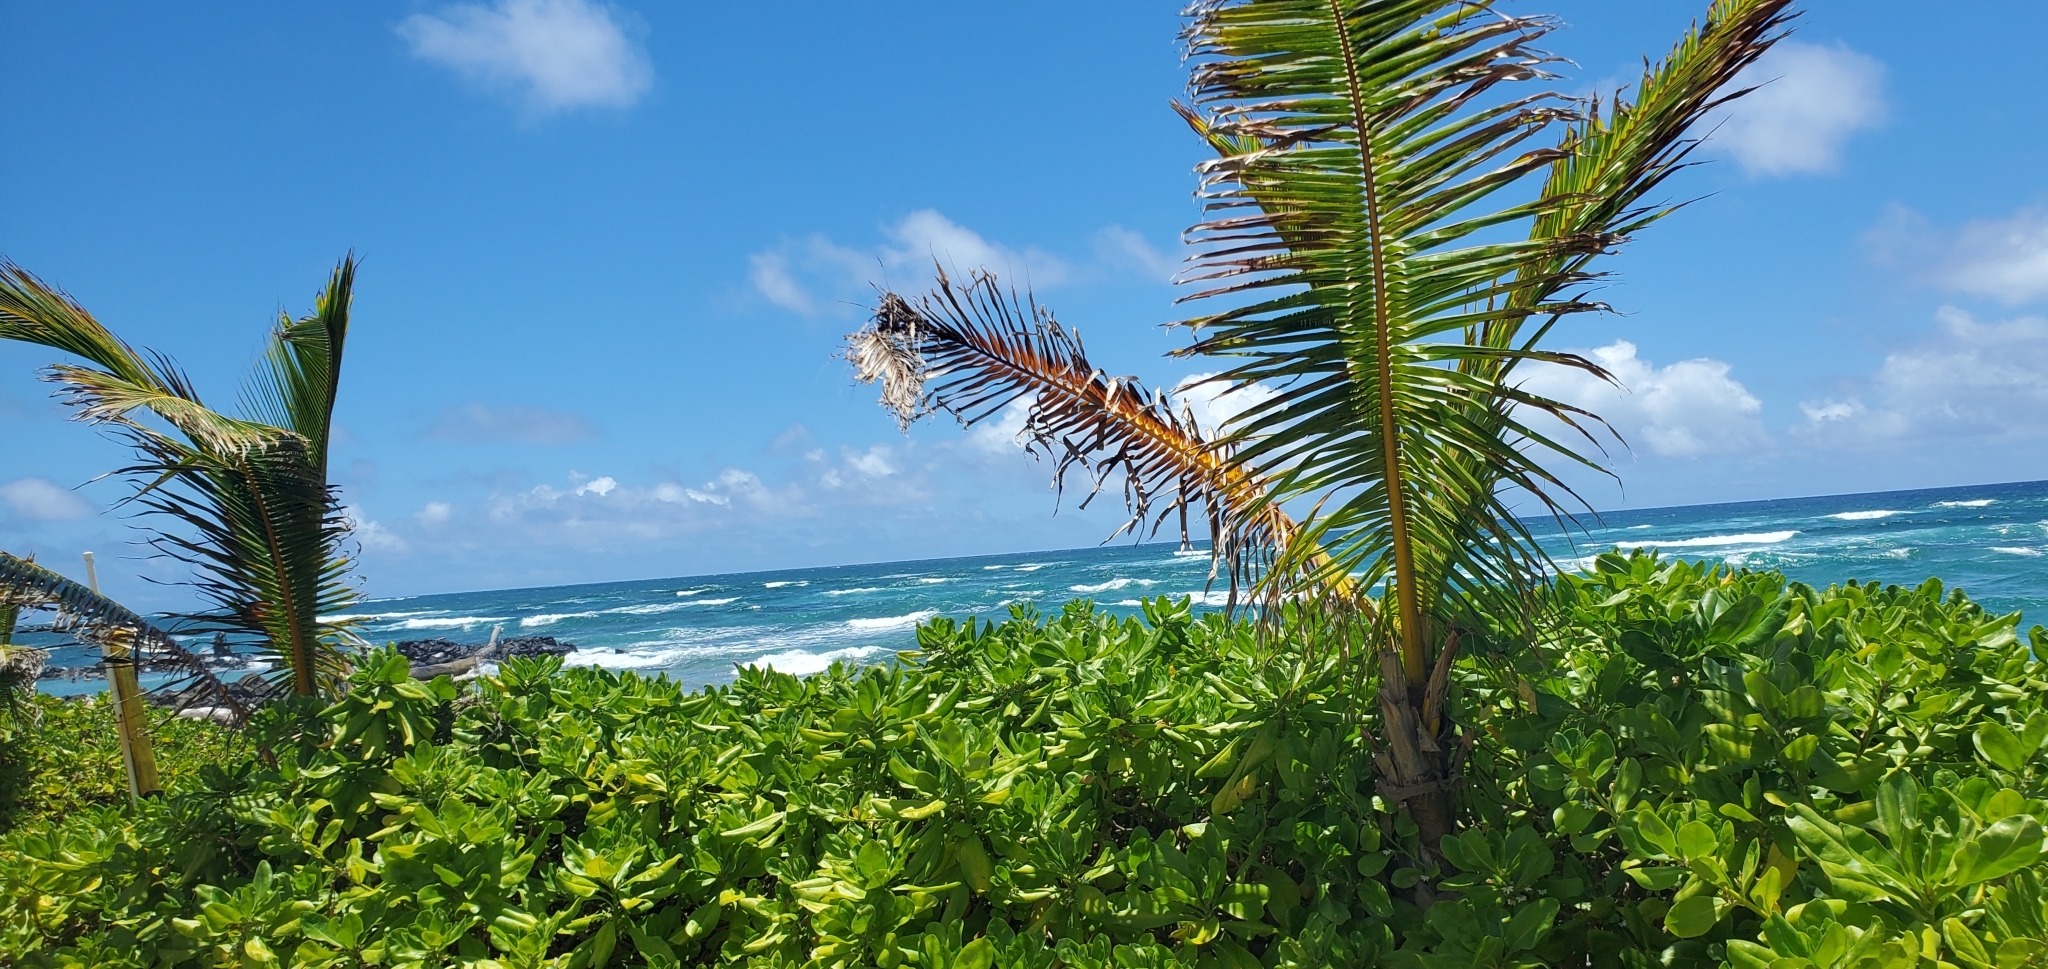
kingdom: Plantae
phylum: Tracheophyta
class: Liliopsida
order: Arecales
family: Arecaceae
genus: Cocos
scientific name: Cocos nucifera
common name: Coconut palm
